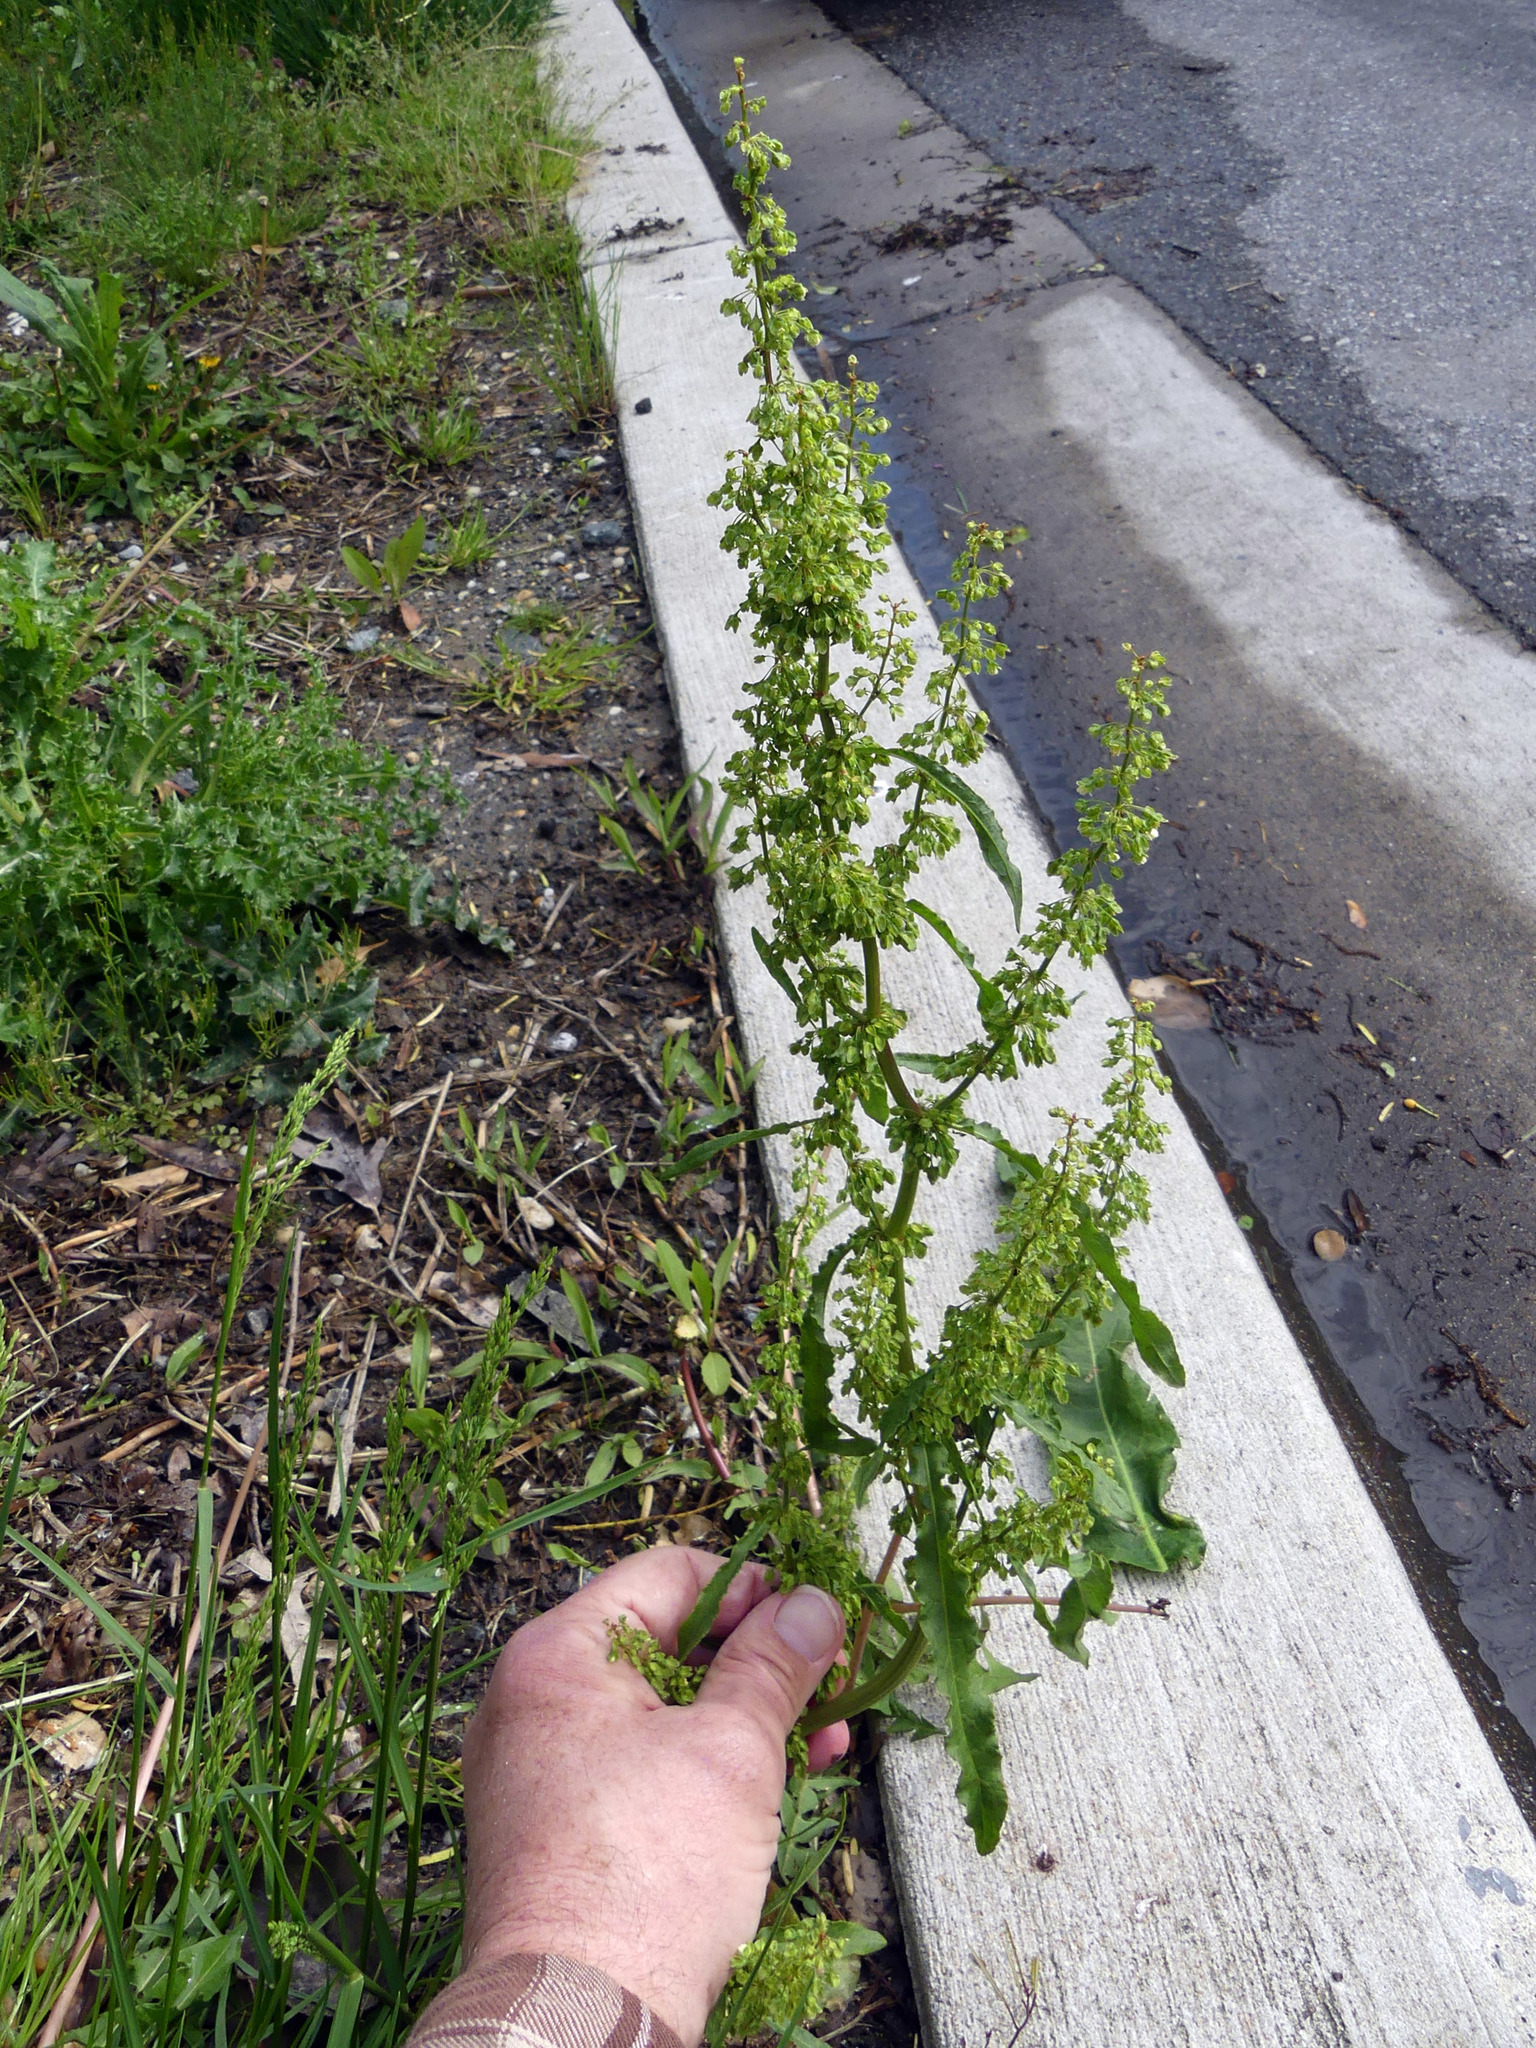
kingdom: Plantae
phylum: Tracheophyta
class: Magnoliopsida
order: Caryophyllales
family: Polygonaceae
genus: Rumex
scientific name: Rumex crispus
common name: Curled dock
